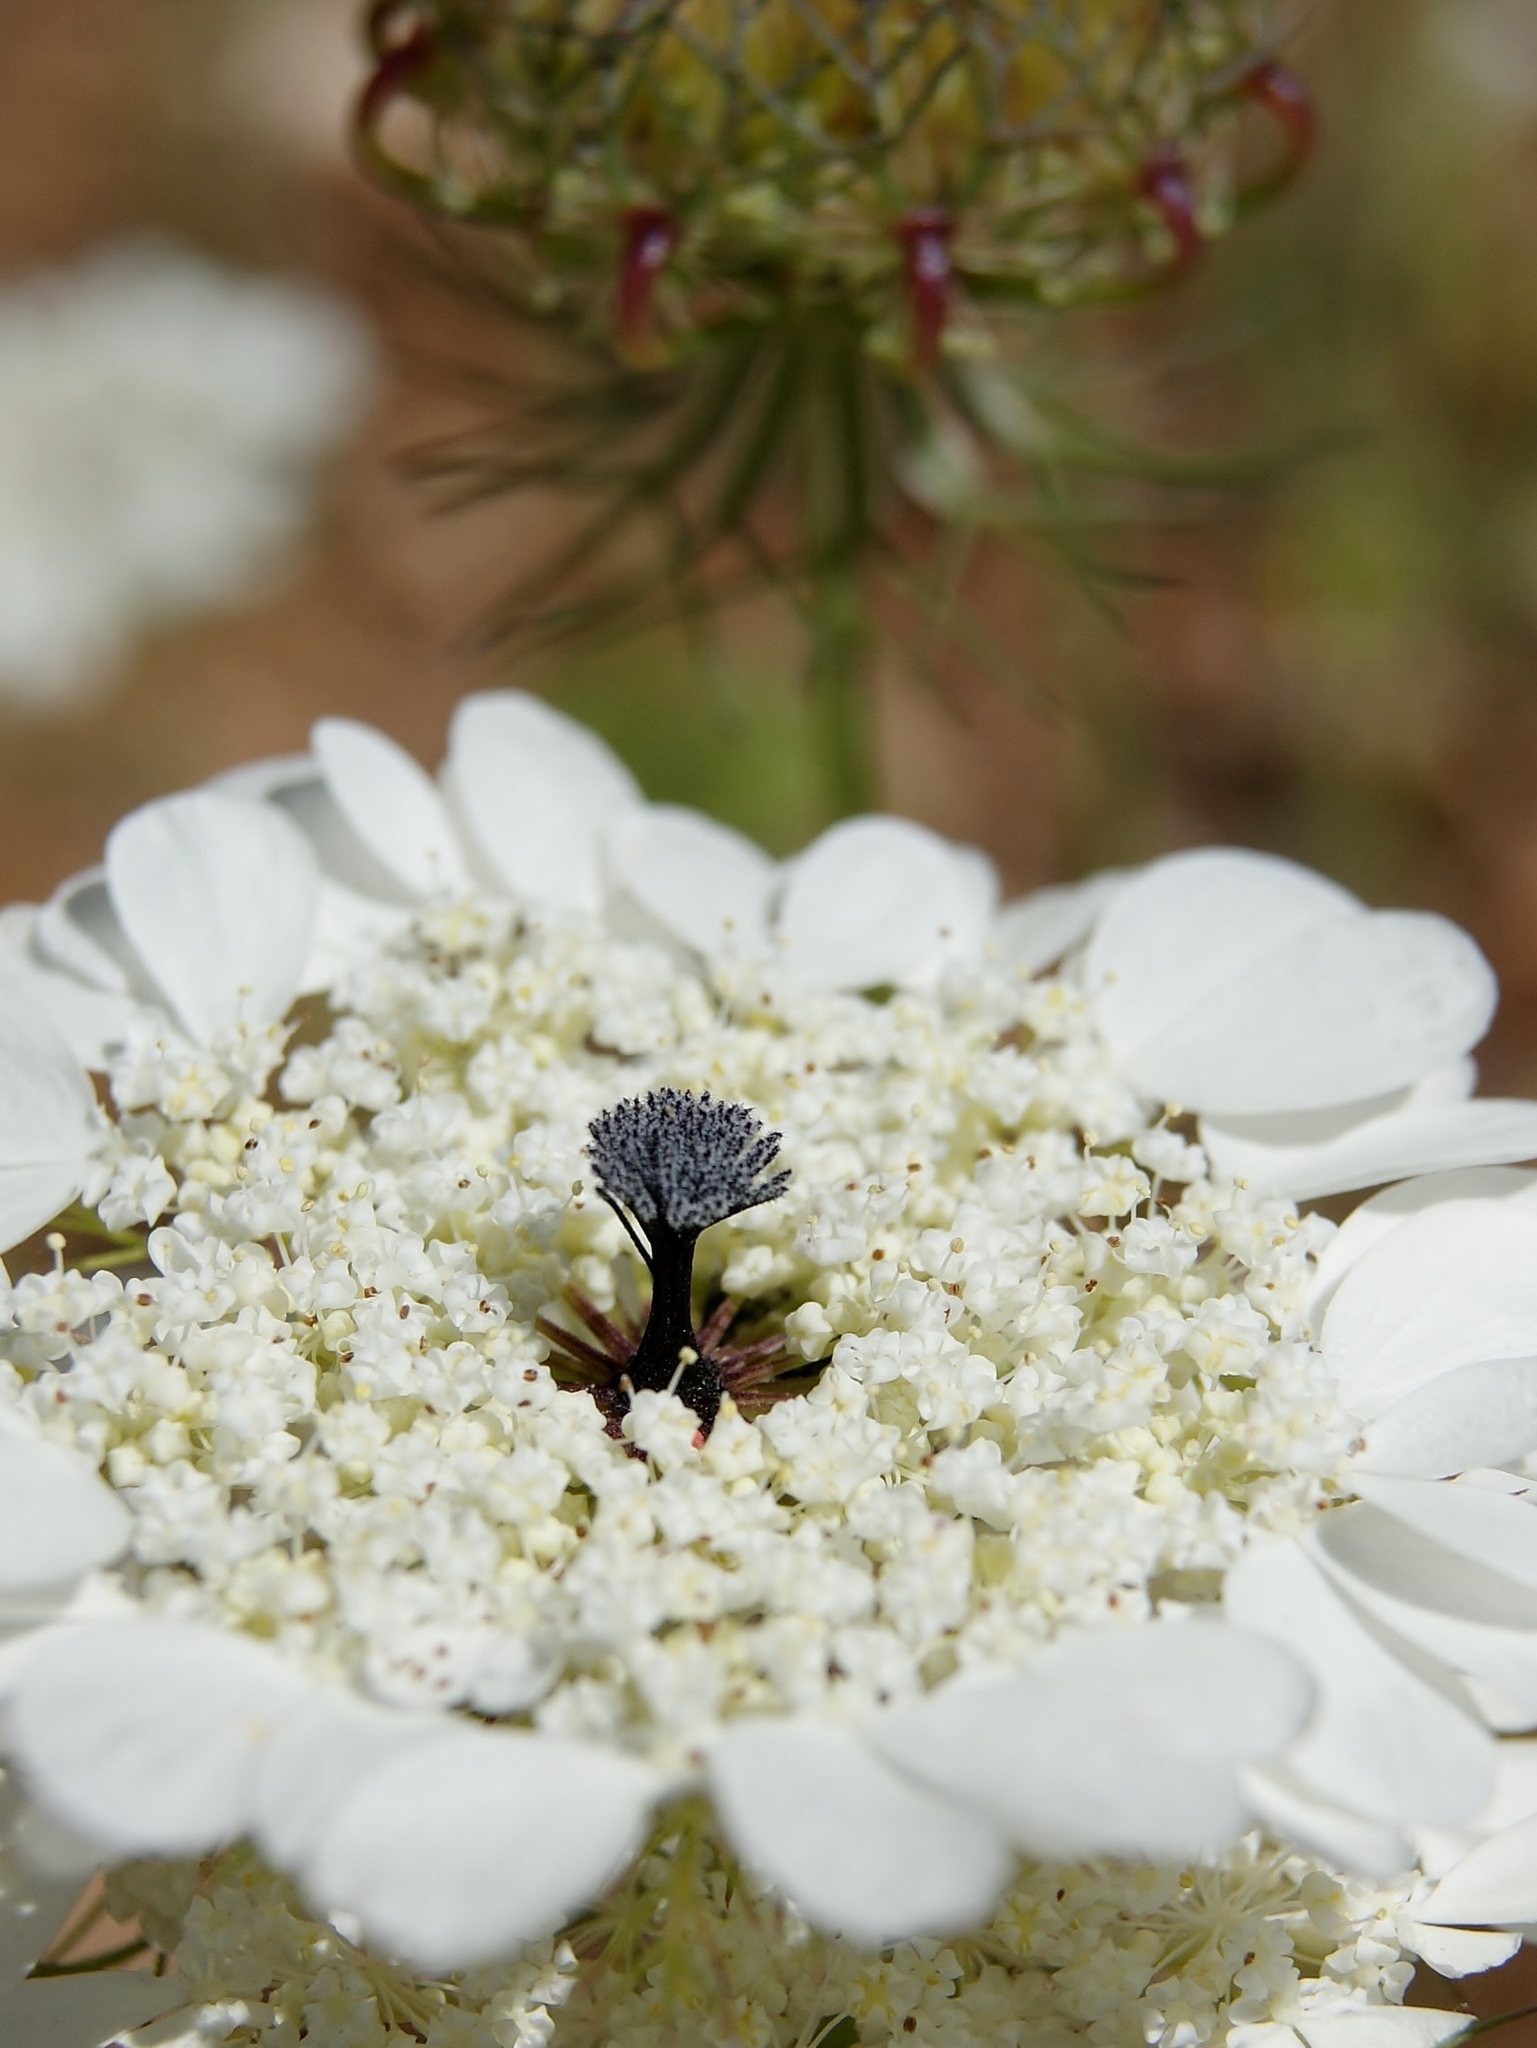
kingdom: Plantae
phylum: Tracheophyta
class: Magnoliopsida
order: Apiales
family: Apiaceae
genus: Artedia
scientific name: Artedia squamata
